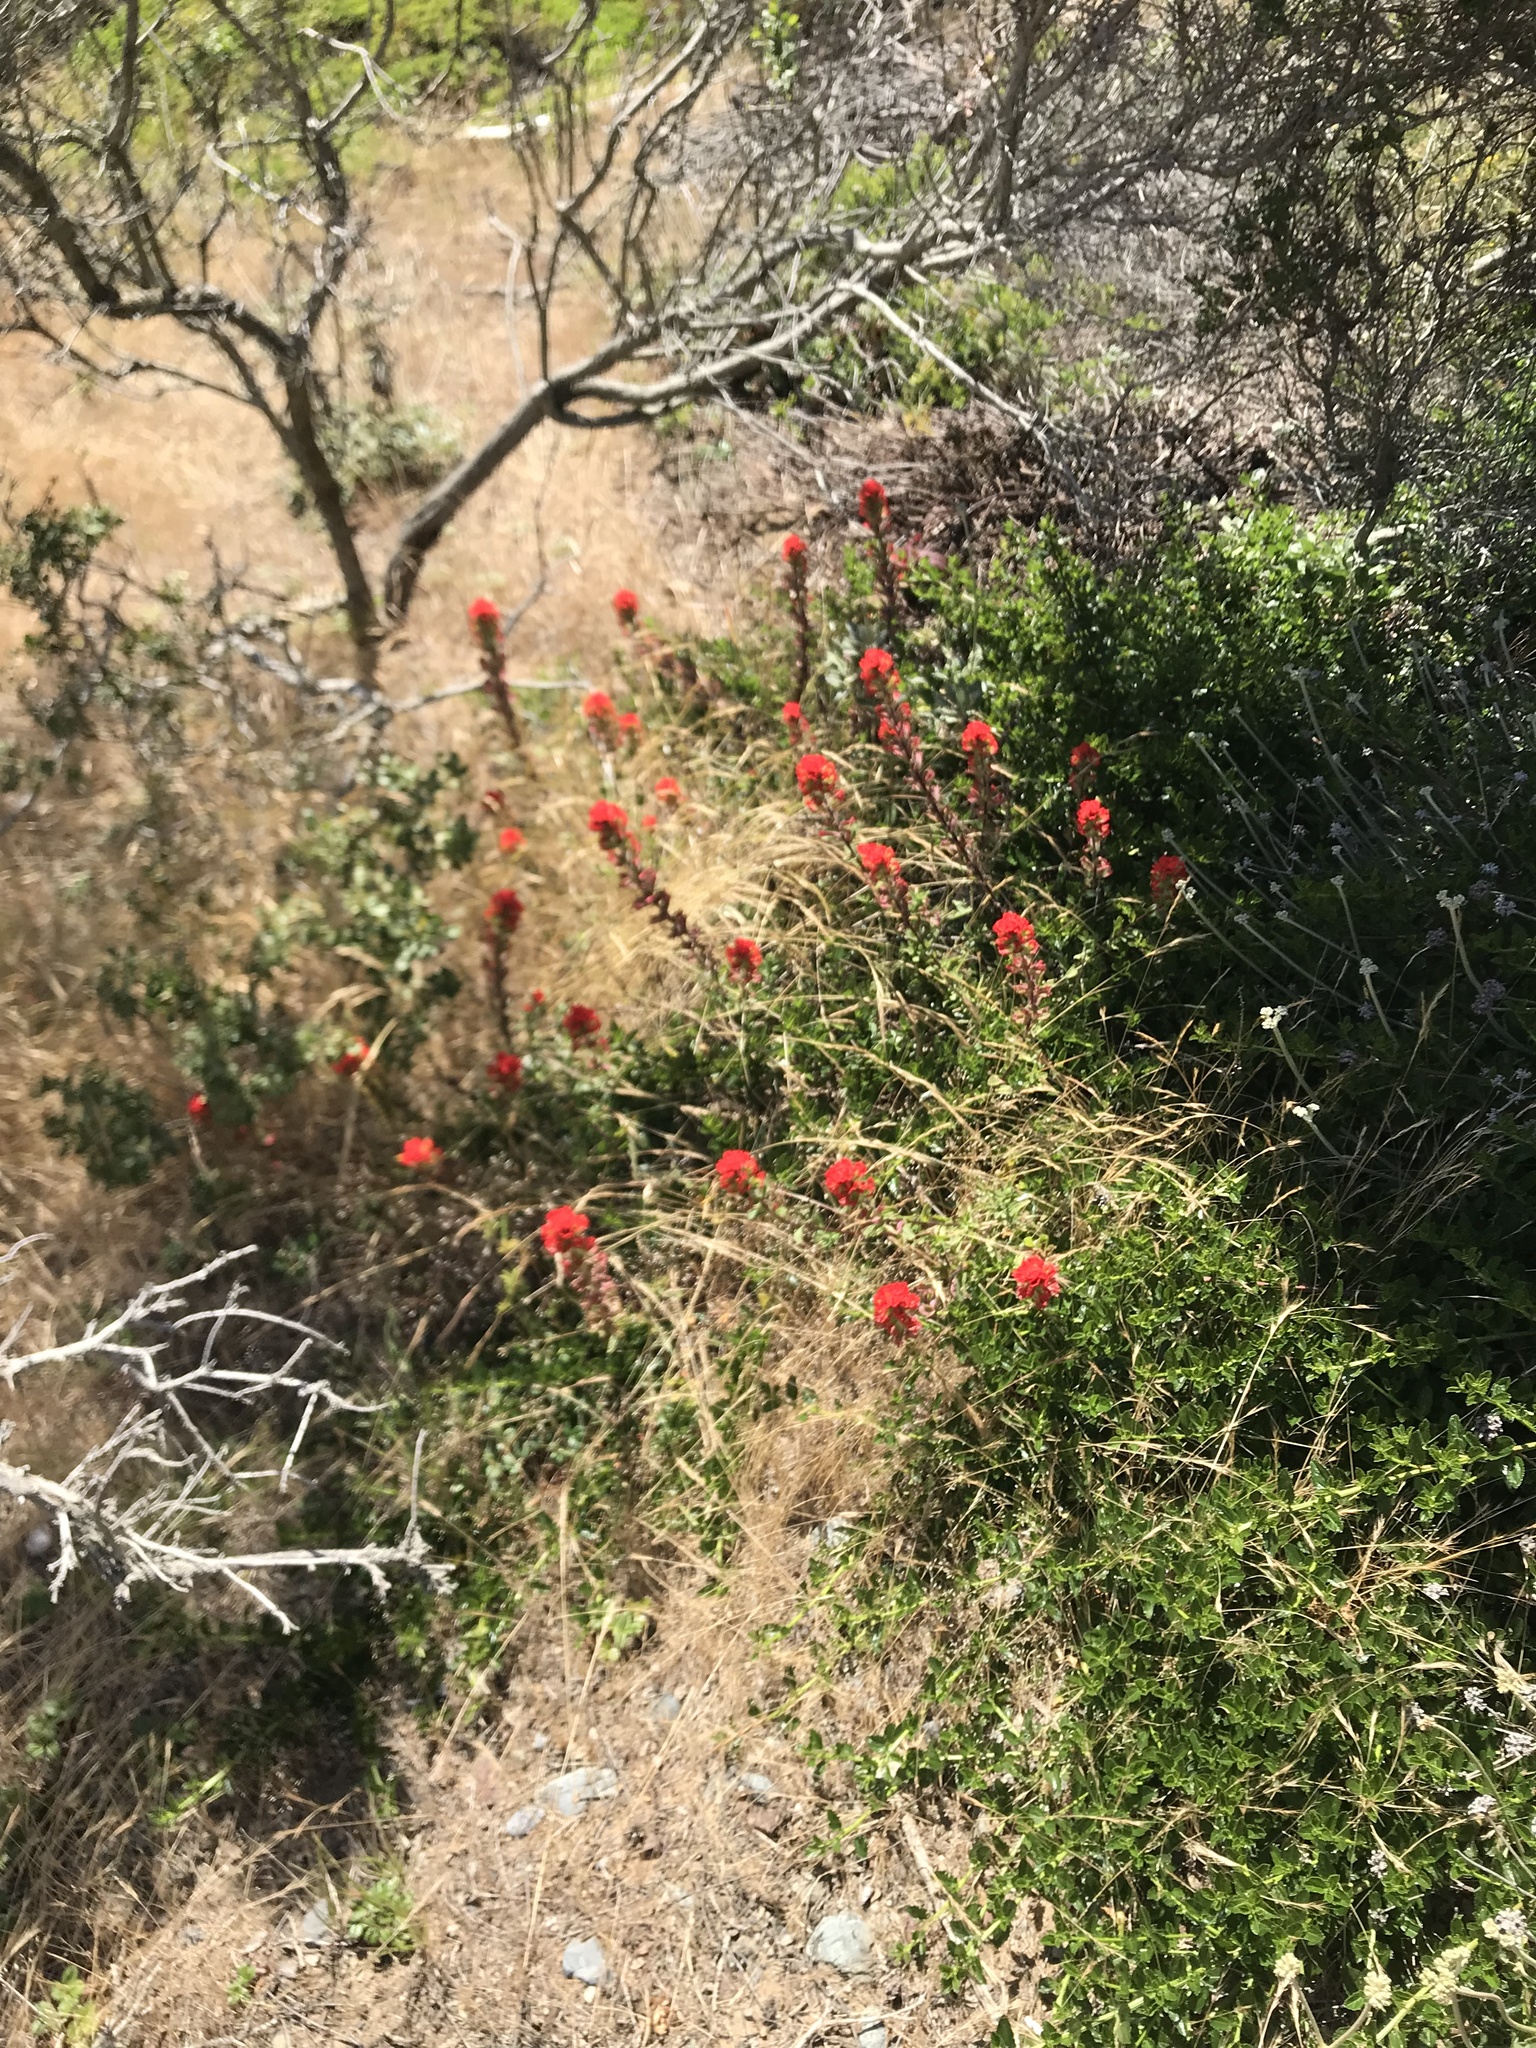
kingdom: Plantae
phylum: Tracheophyta
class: Magnoliopsida
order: Lamiales
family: Orobanchaceae
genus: Castilleja
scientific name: Castilleja affinis
